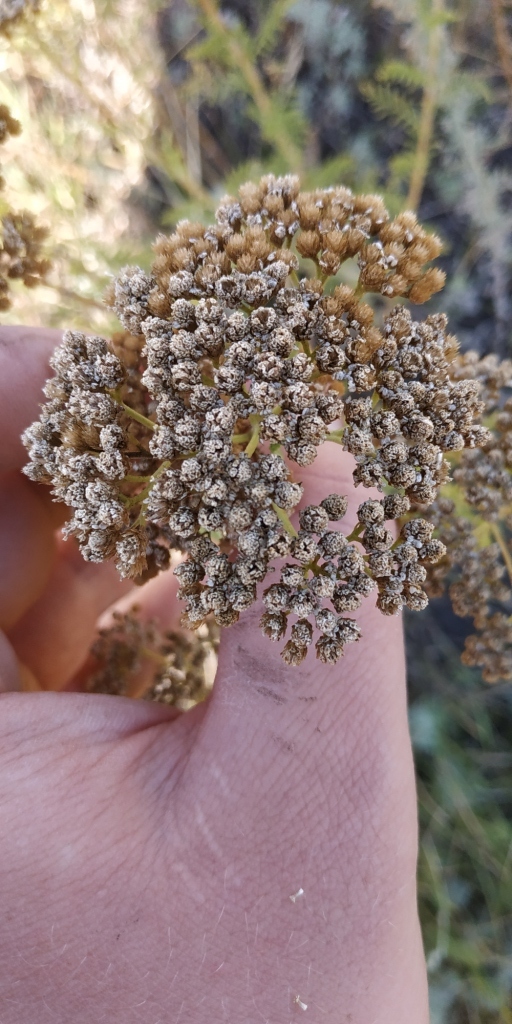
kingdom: Plantae
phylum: Tracheophyta
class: Magnoliopsida
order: Asterales
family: Asteraceae
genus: Achillea
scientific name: Achillea nobilis
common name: Noble yarrow
